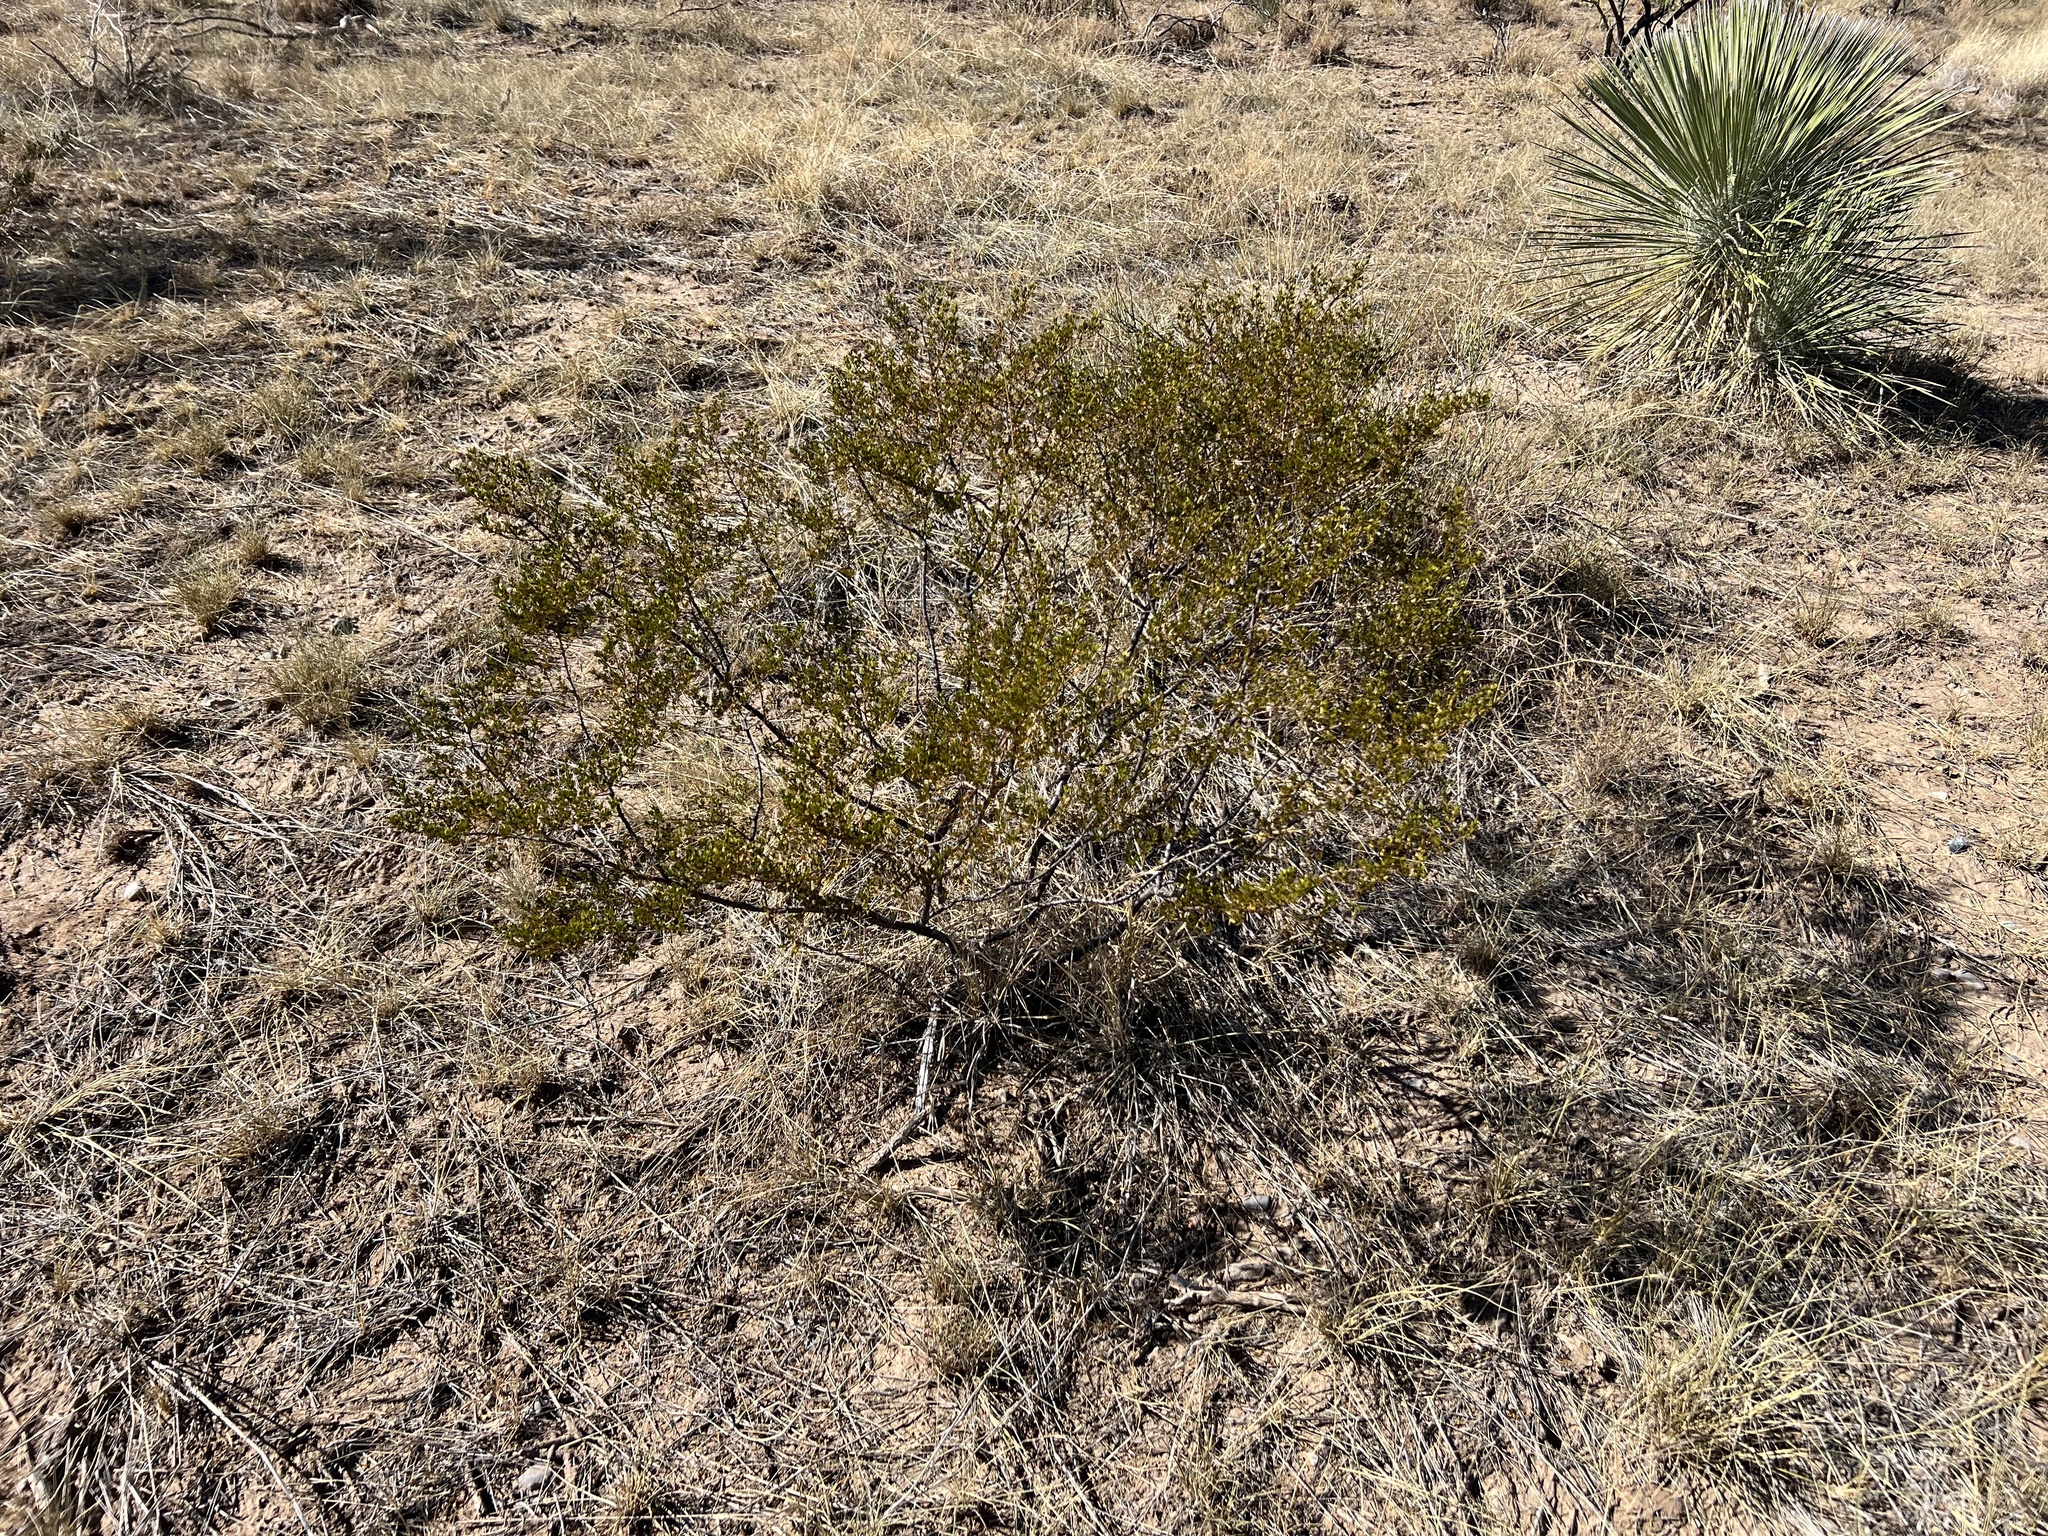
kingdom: Plantae
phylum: Tracheophyta
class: Magnoliopsida
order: Zygophyllales
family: Zygophyllaceae
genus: Larrea
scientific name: Larrea tridentata
